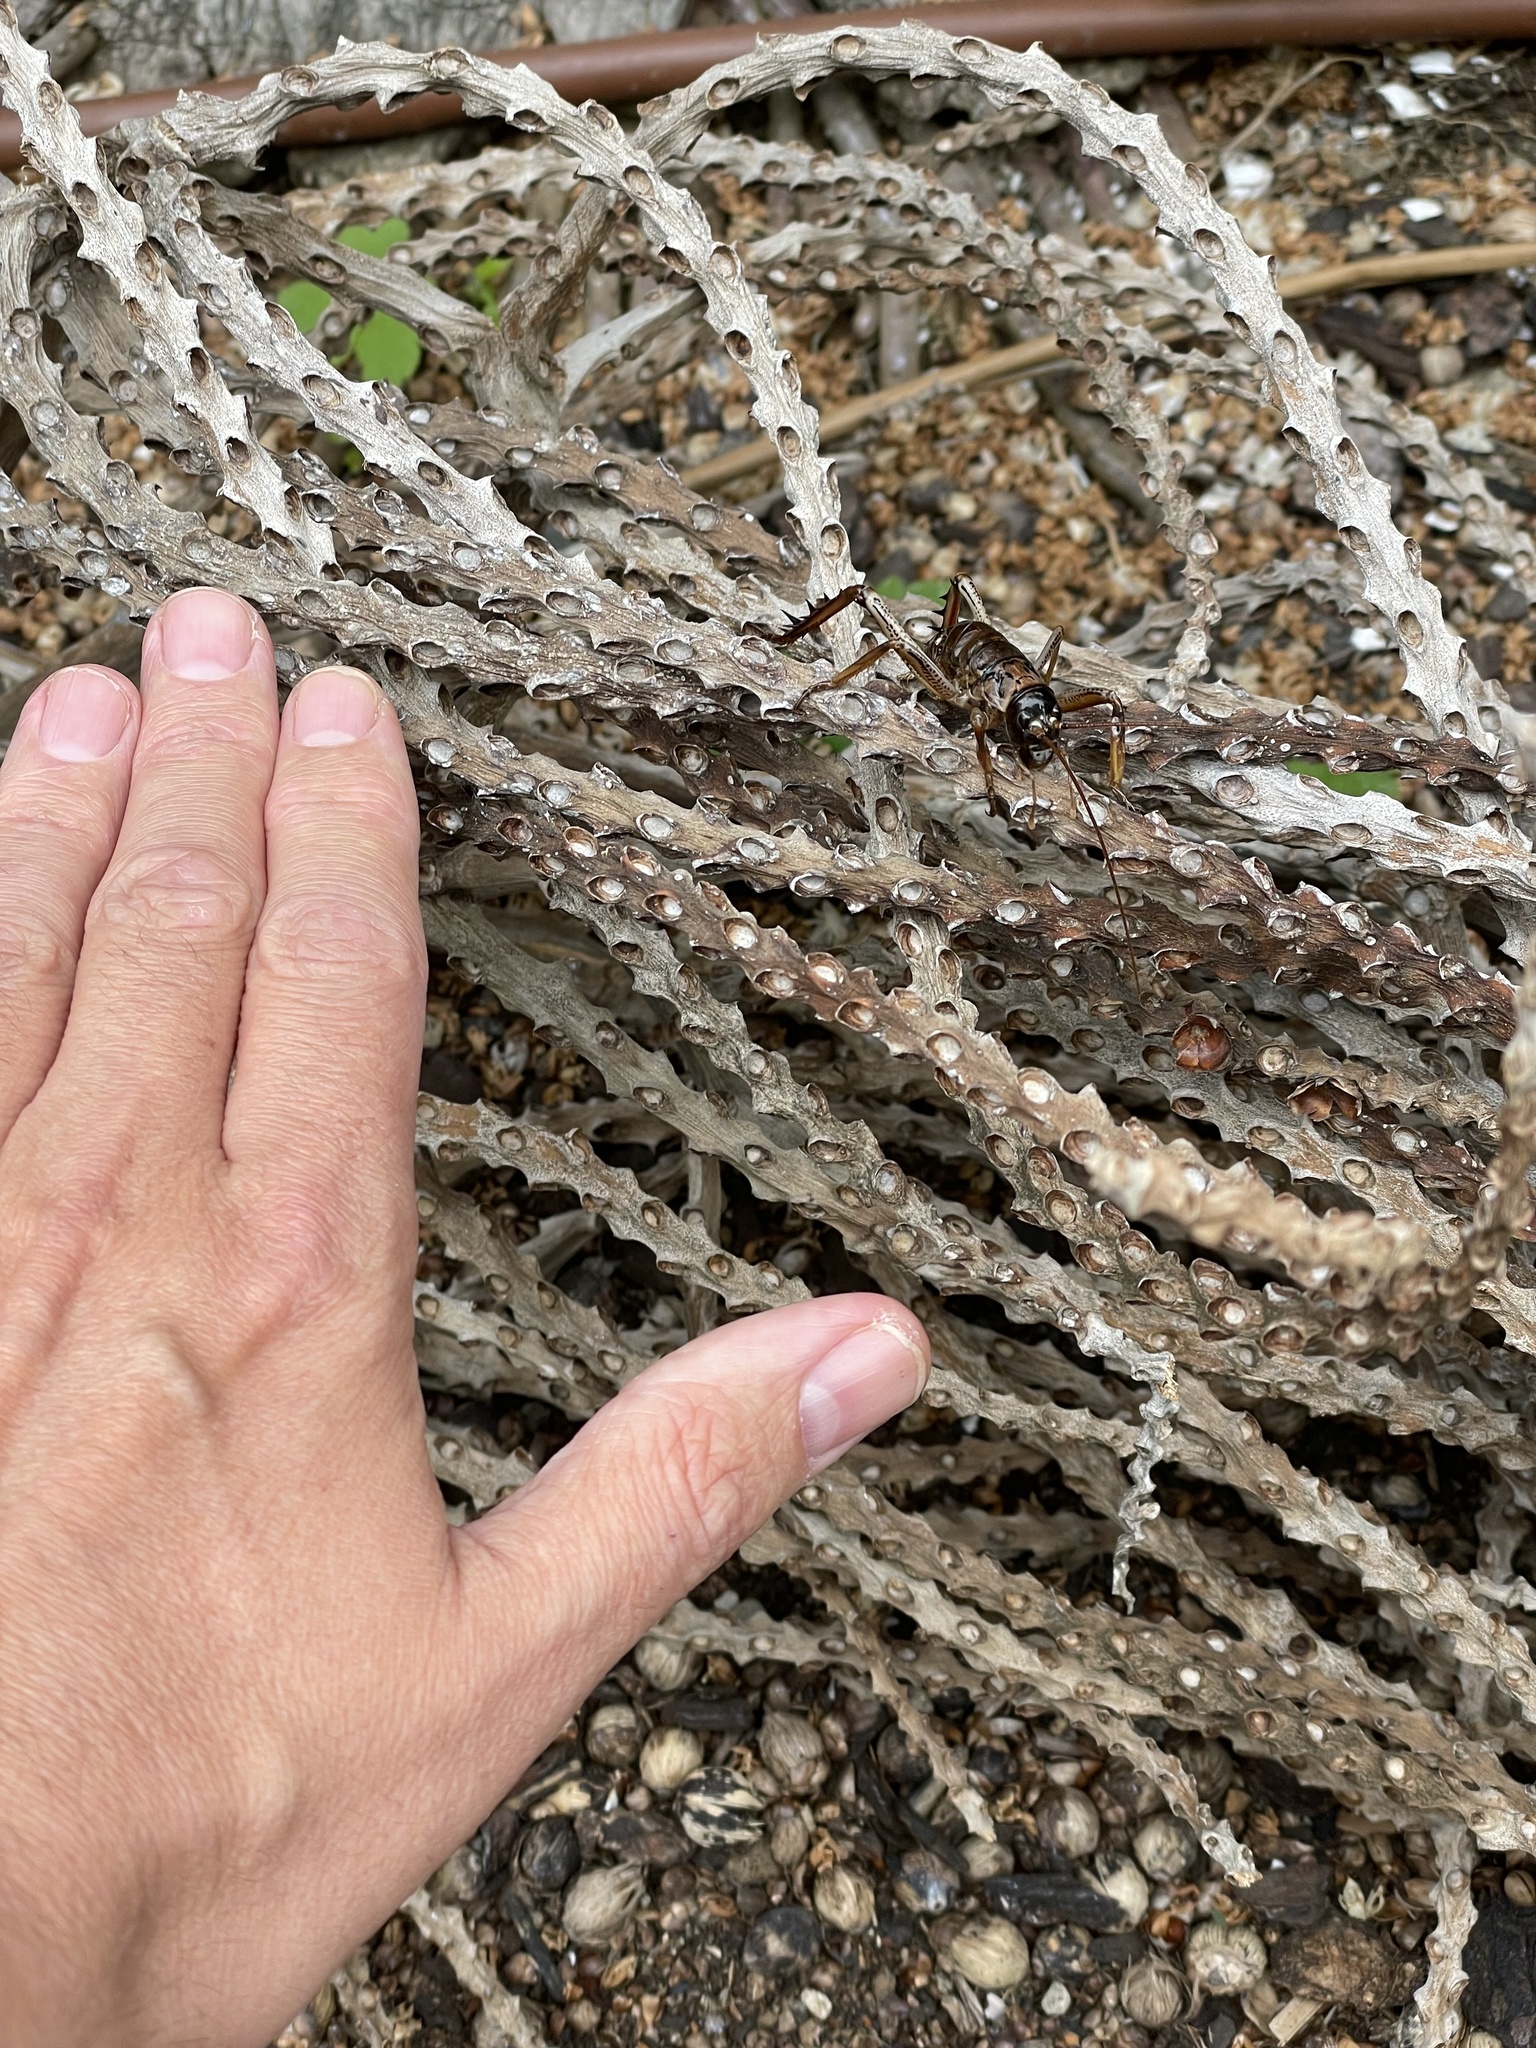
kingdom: Animalia
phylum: Arthropoda
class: Insecta
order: Orthoptera
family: Anostostomatidae
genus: Hemideina
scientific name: Hemideina thoracica
